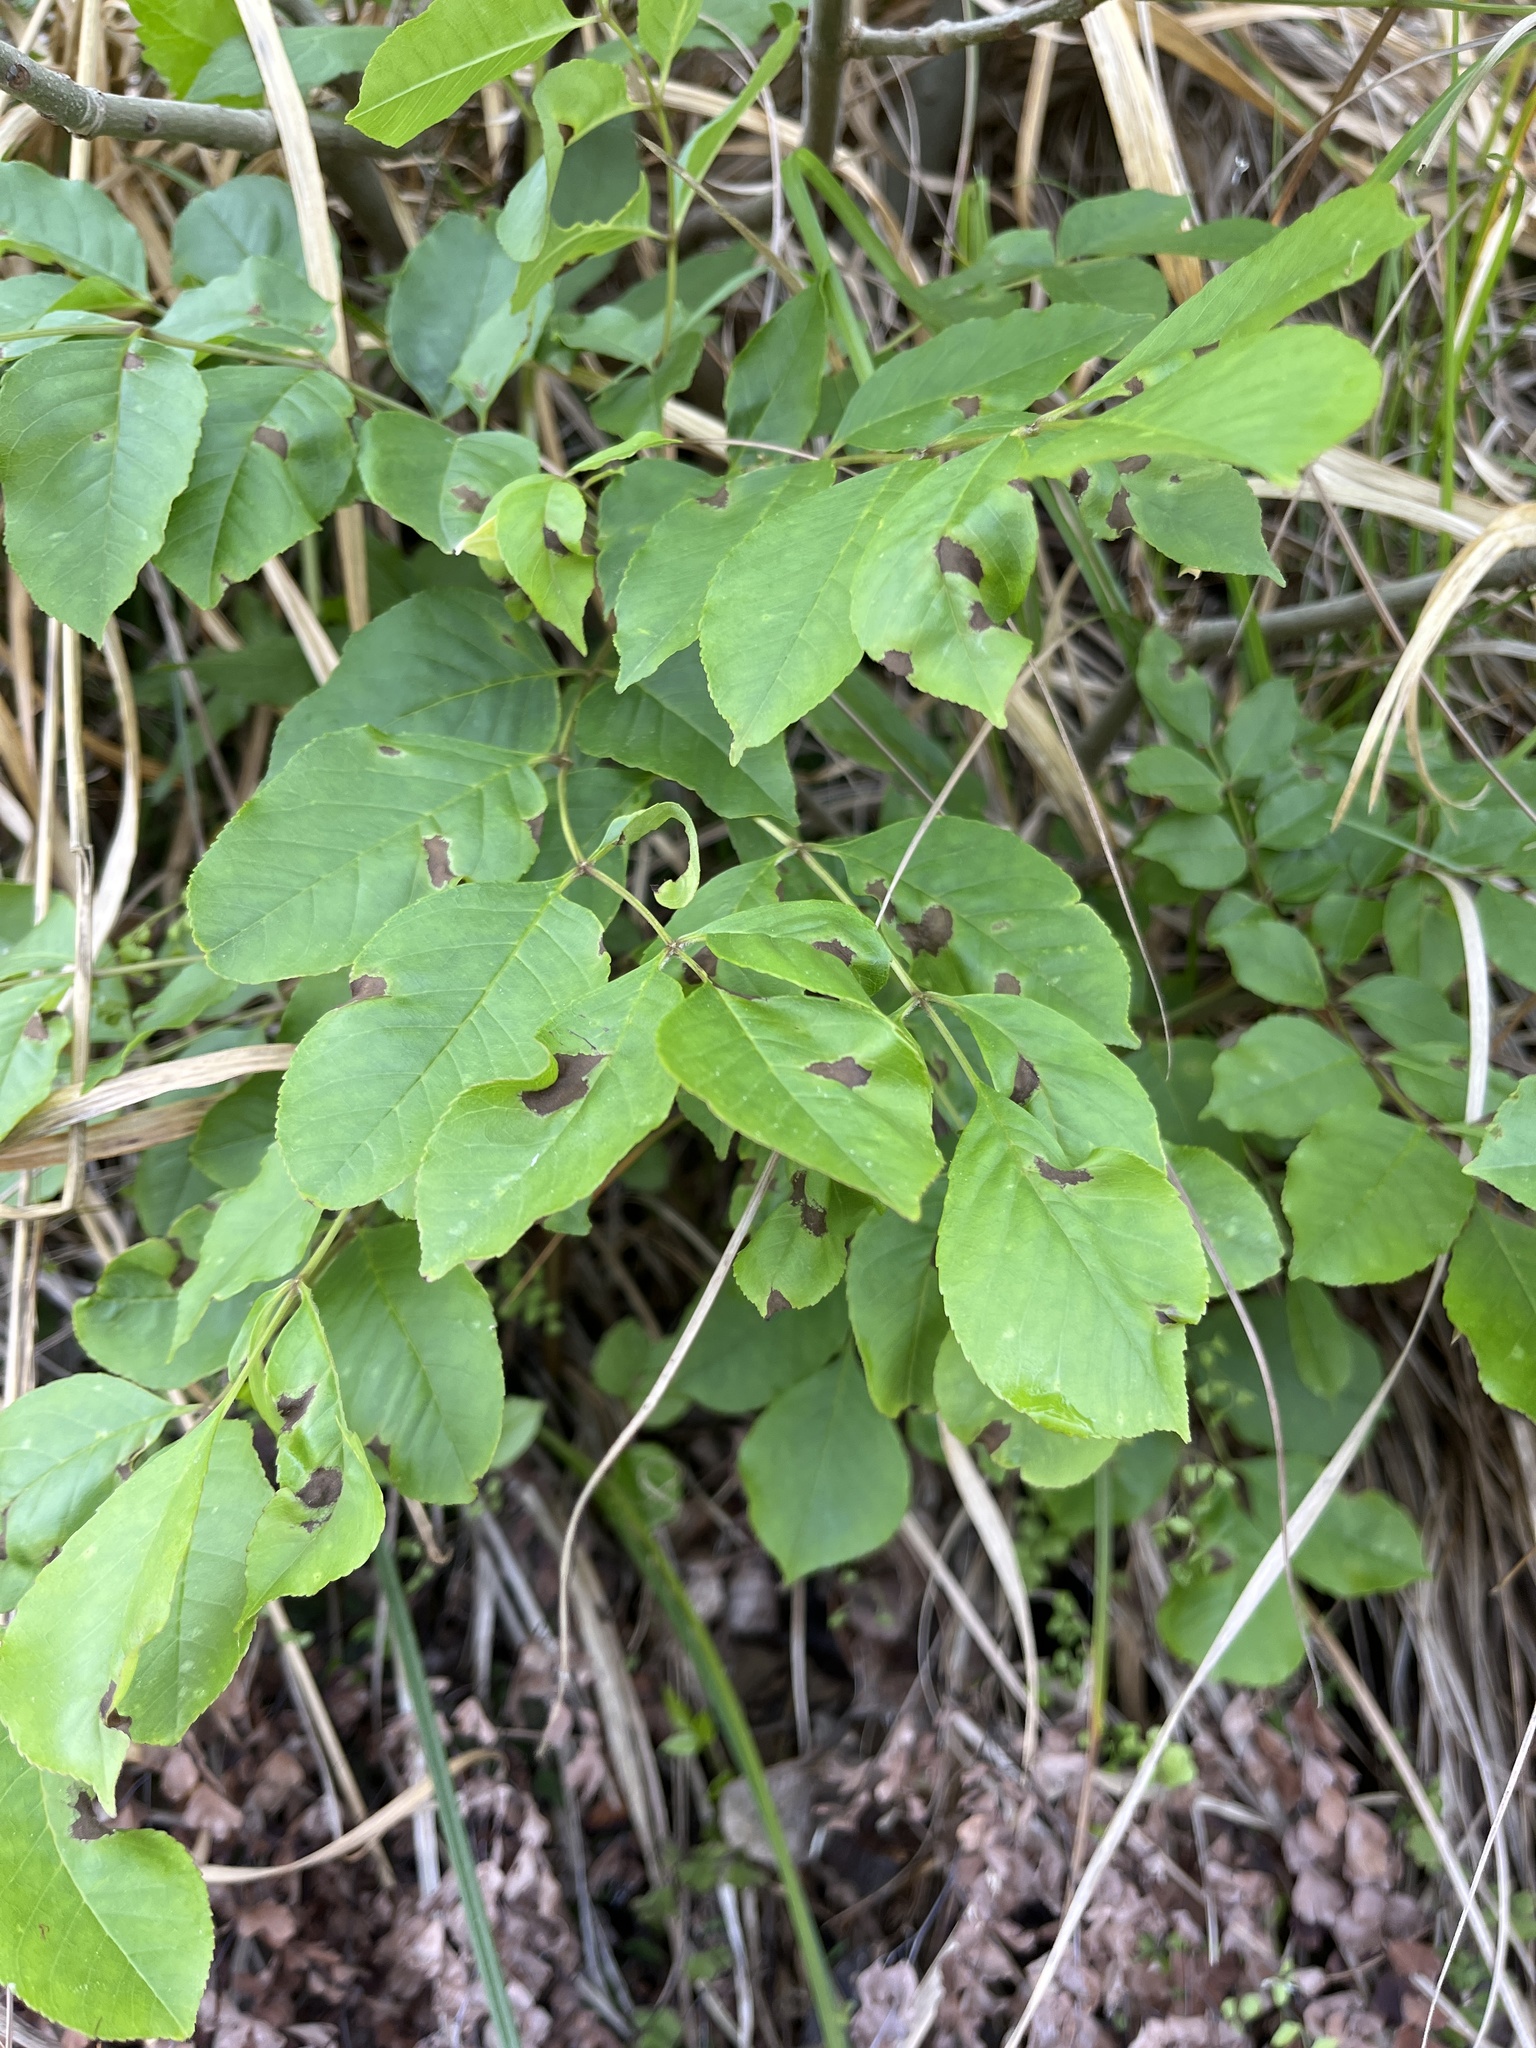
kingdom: Plantae
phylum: Tracheophyta
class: Magnoliopsida
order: Lamiales
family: Oleaceae
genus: Fraxinus
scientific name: Fraxinus ornus
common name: Manna ash
